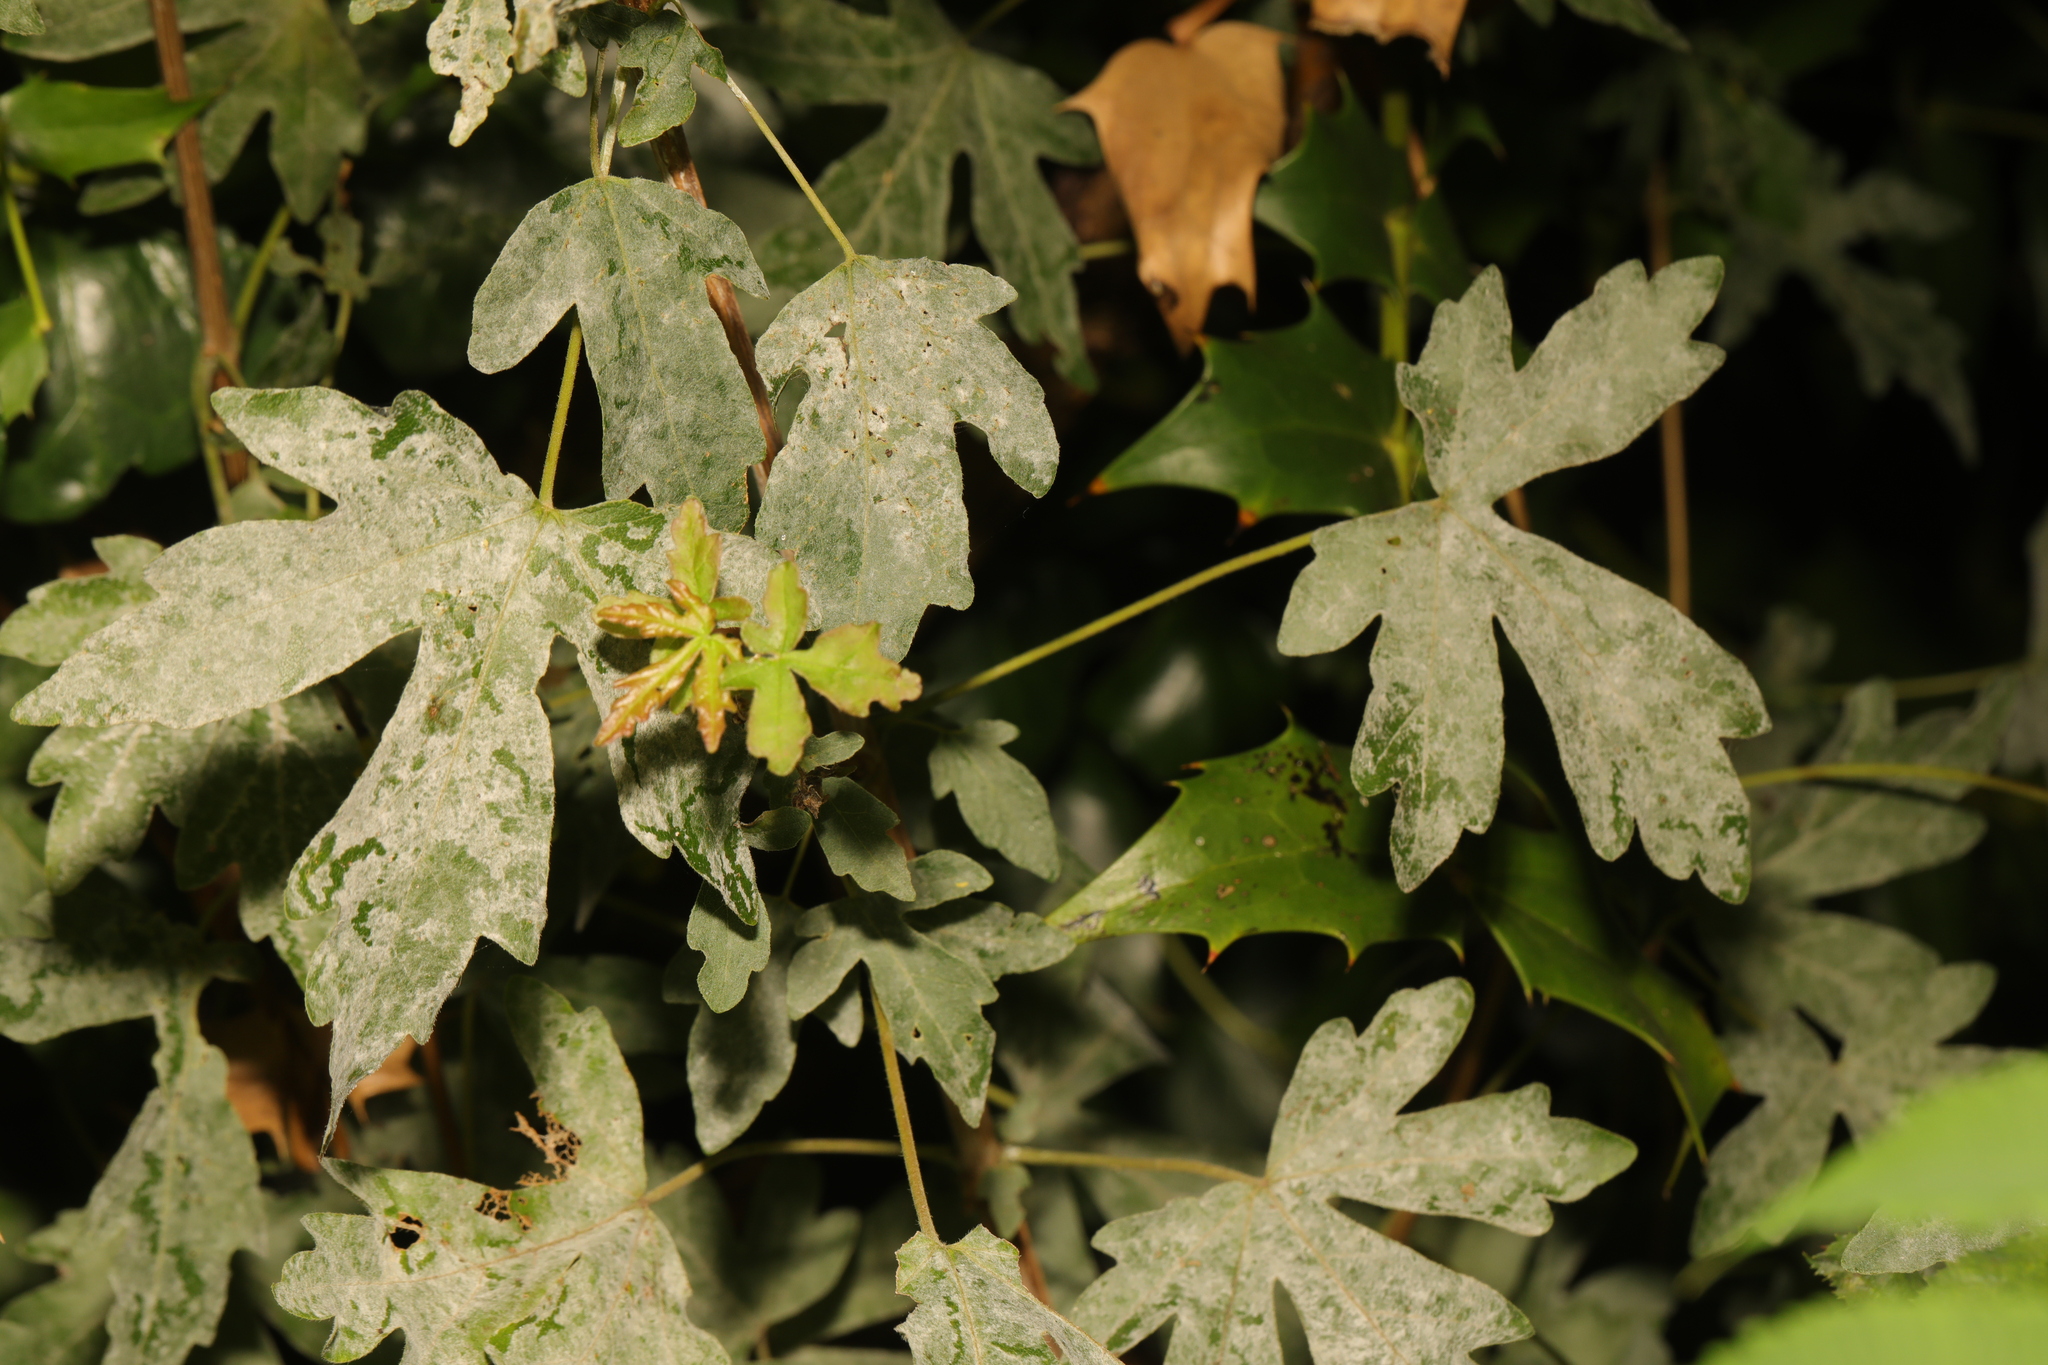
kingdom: Plantae
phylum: Tracheophyta
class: Magnoliopsida
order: Sapindales
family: Sapindaceae
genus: Acer
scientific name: Acer campestre
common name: Field maple
